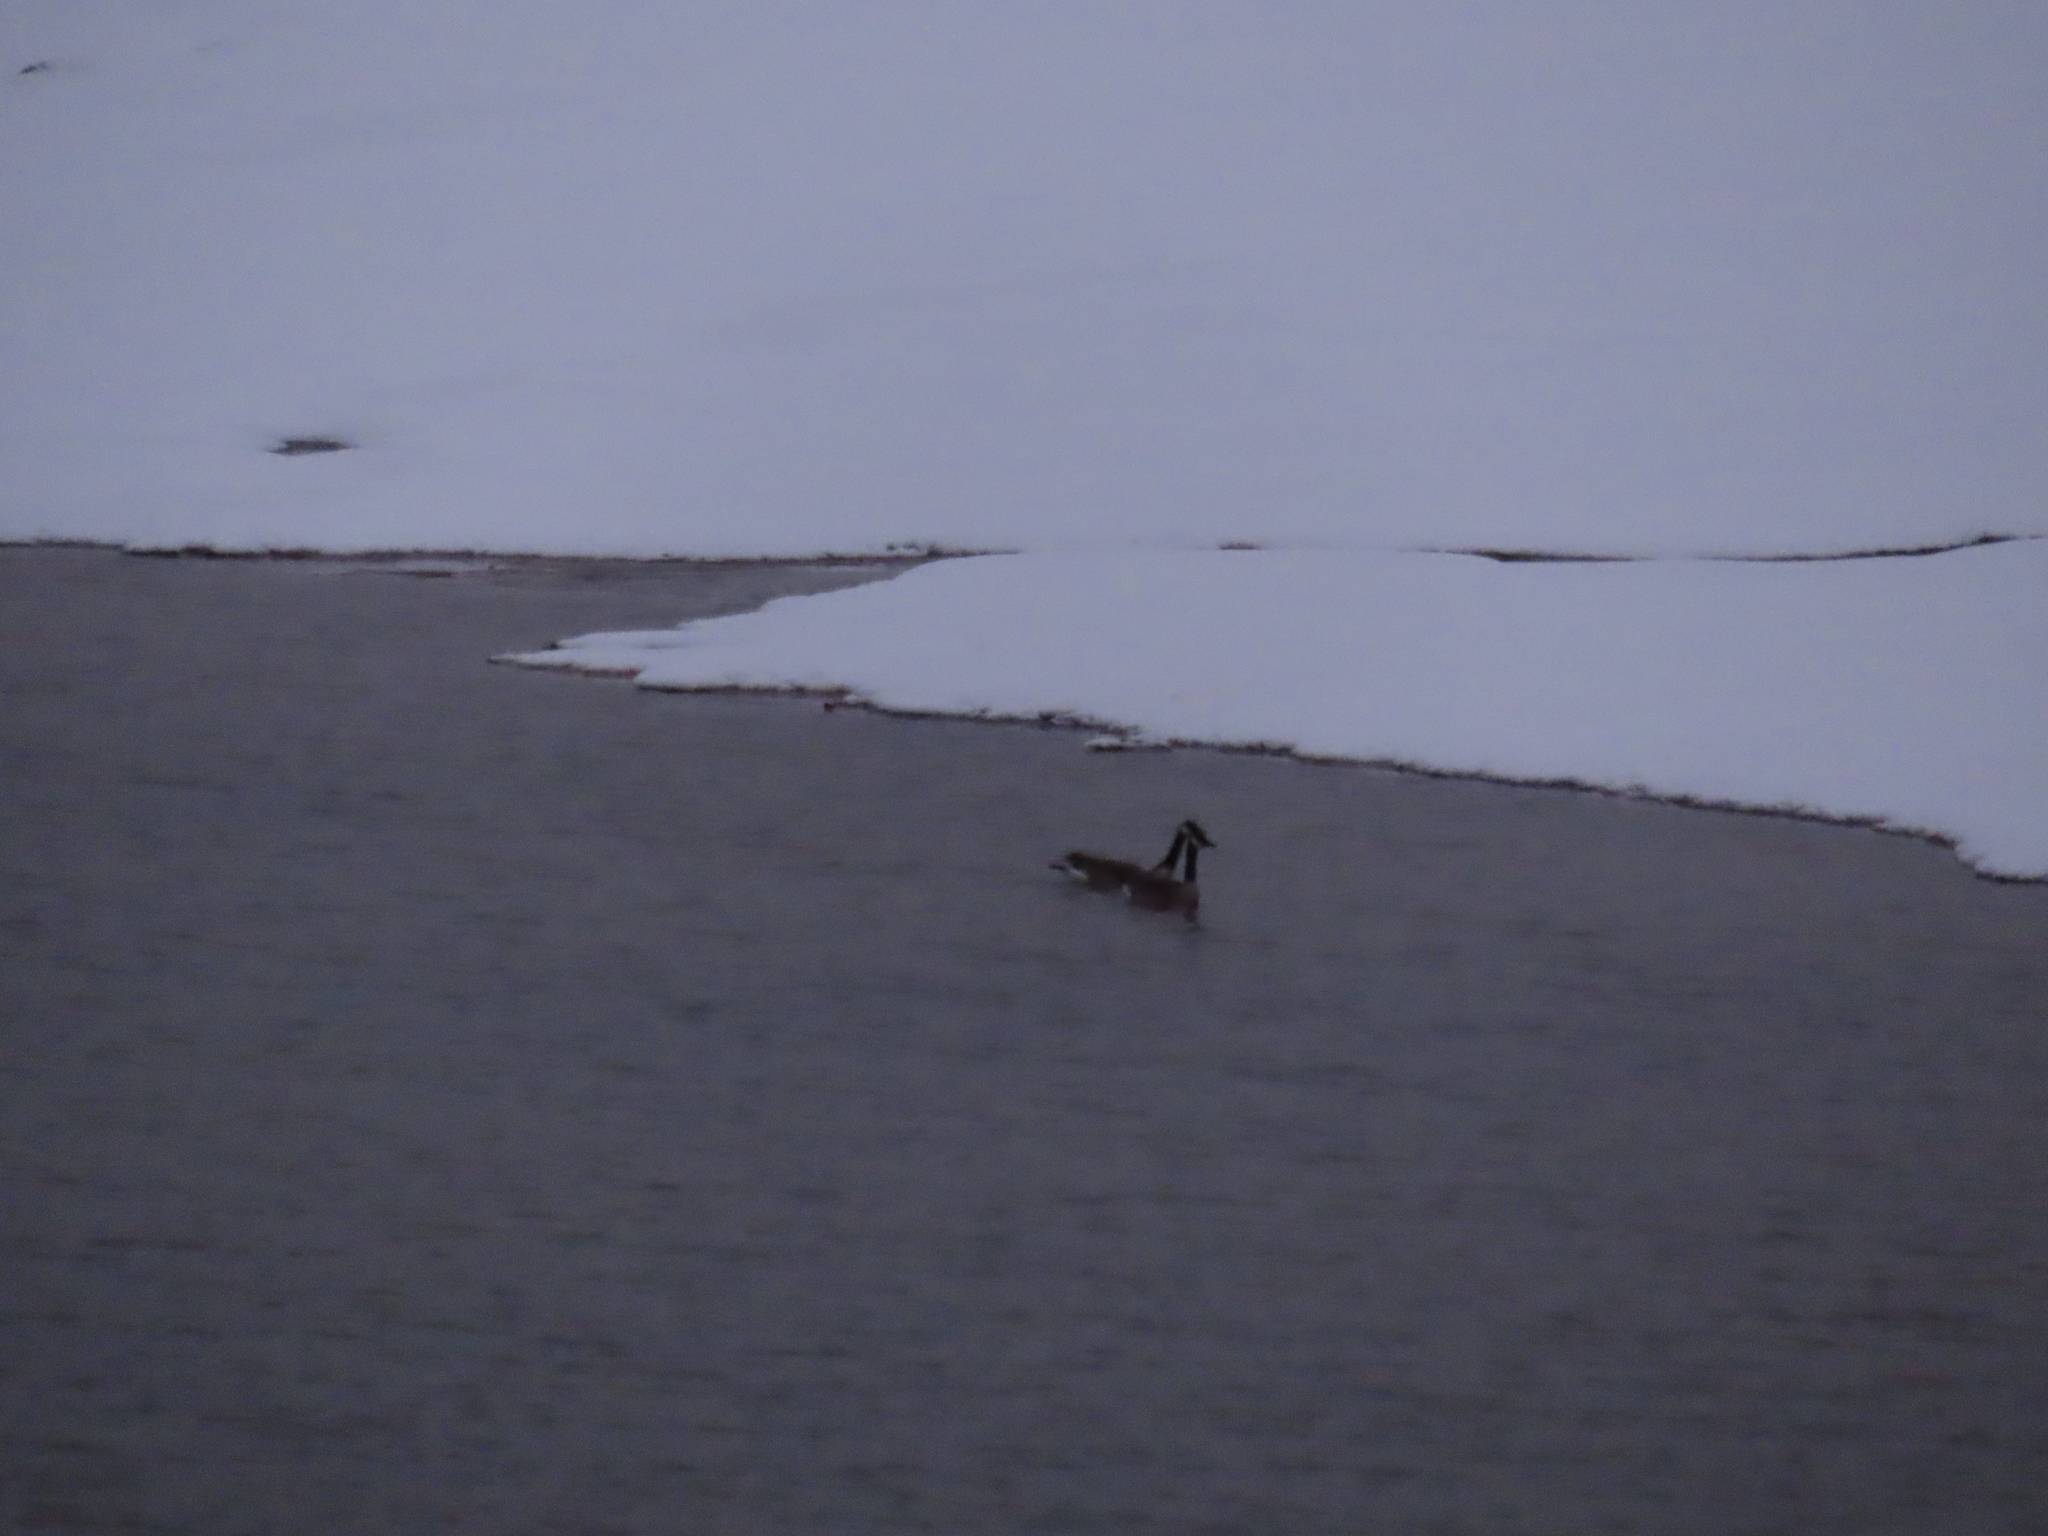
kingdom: Animalia
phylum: Chordata
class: Aves
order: Anseriformes
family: Anatidae
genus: Branta
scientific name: Branta canadensis
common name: Canada goose
